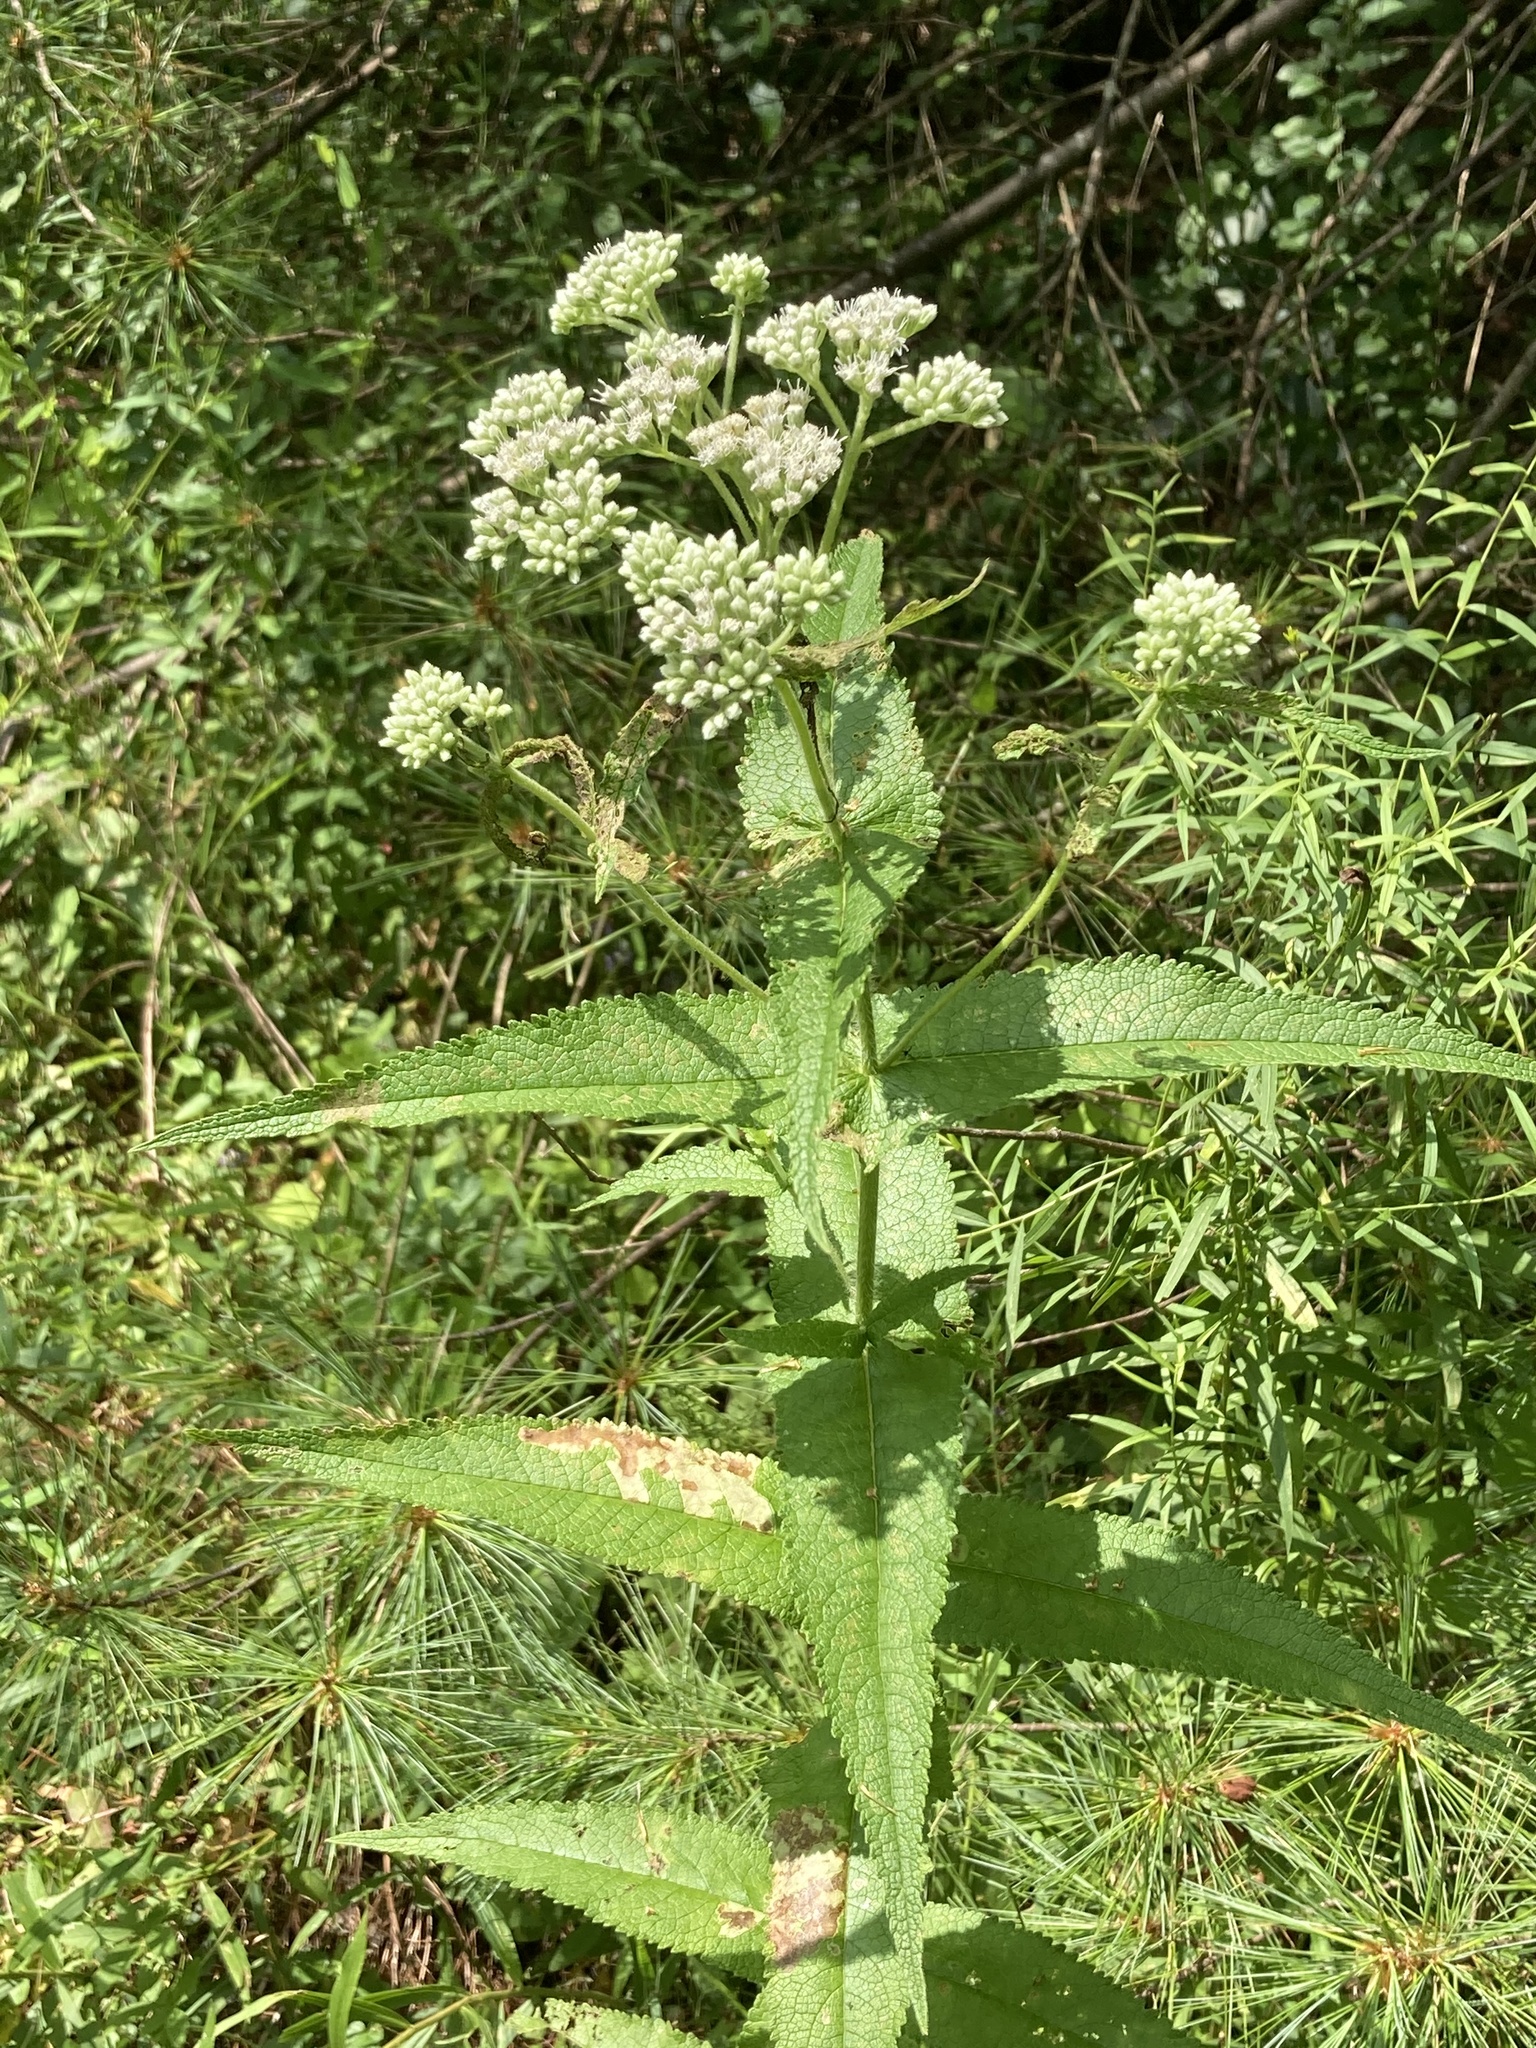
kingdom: Plantae
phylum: Tracheophyta
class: Magnoliopsida
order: Asterales
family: Asteraceae
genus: Eupatorium
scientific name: Eupatorium perfoliatum
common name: Boneset
